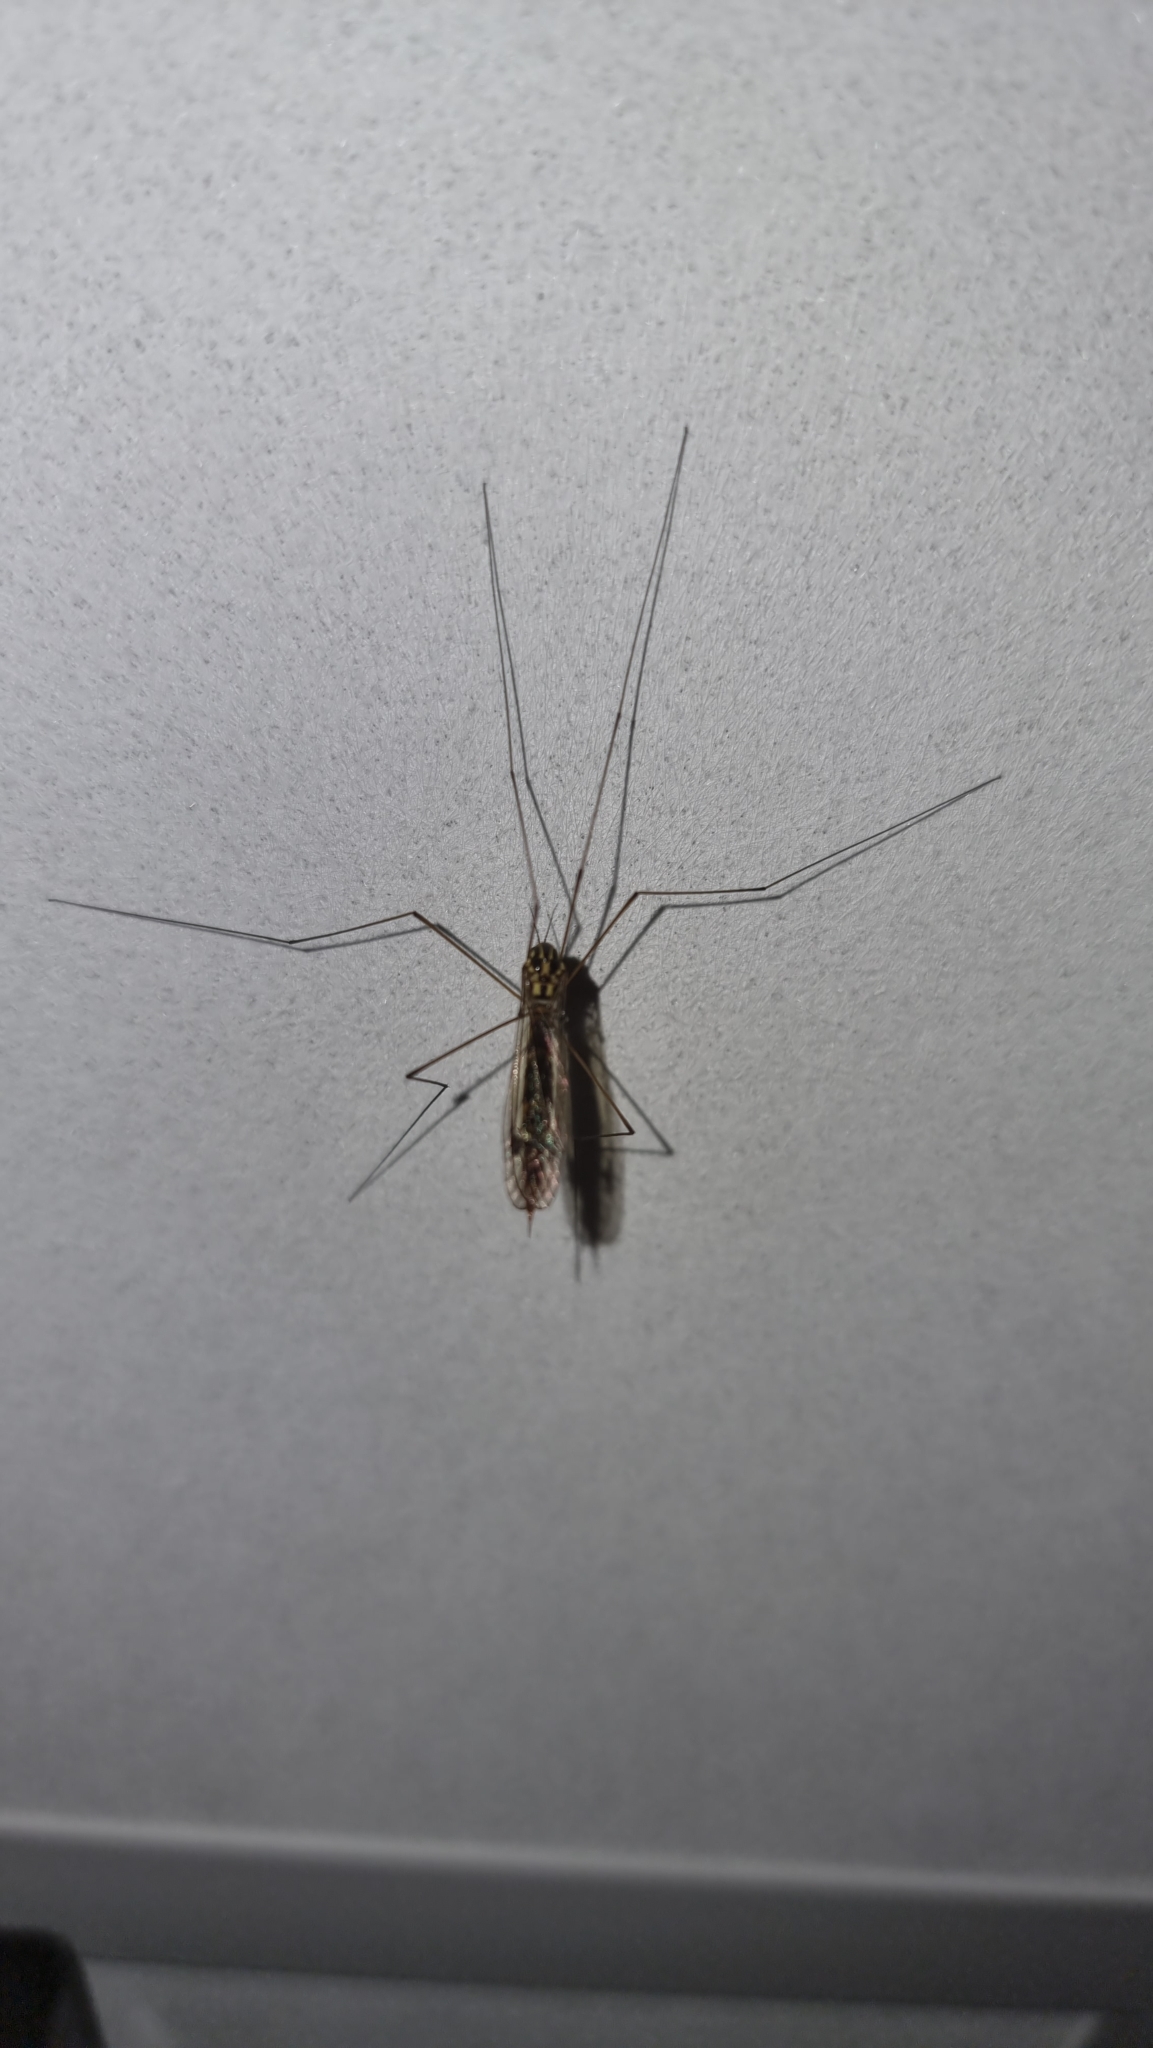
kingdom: Animalia
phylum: Arthropoda
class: Insecta
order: Diptera
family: Tipulidae
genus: Nephrotoma
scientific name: Nephrotoma flavipalpis
